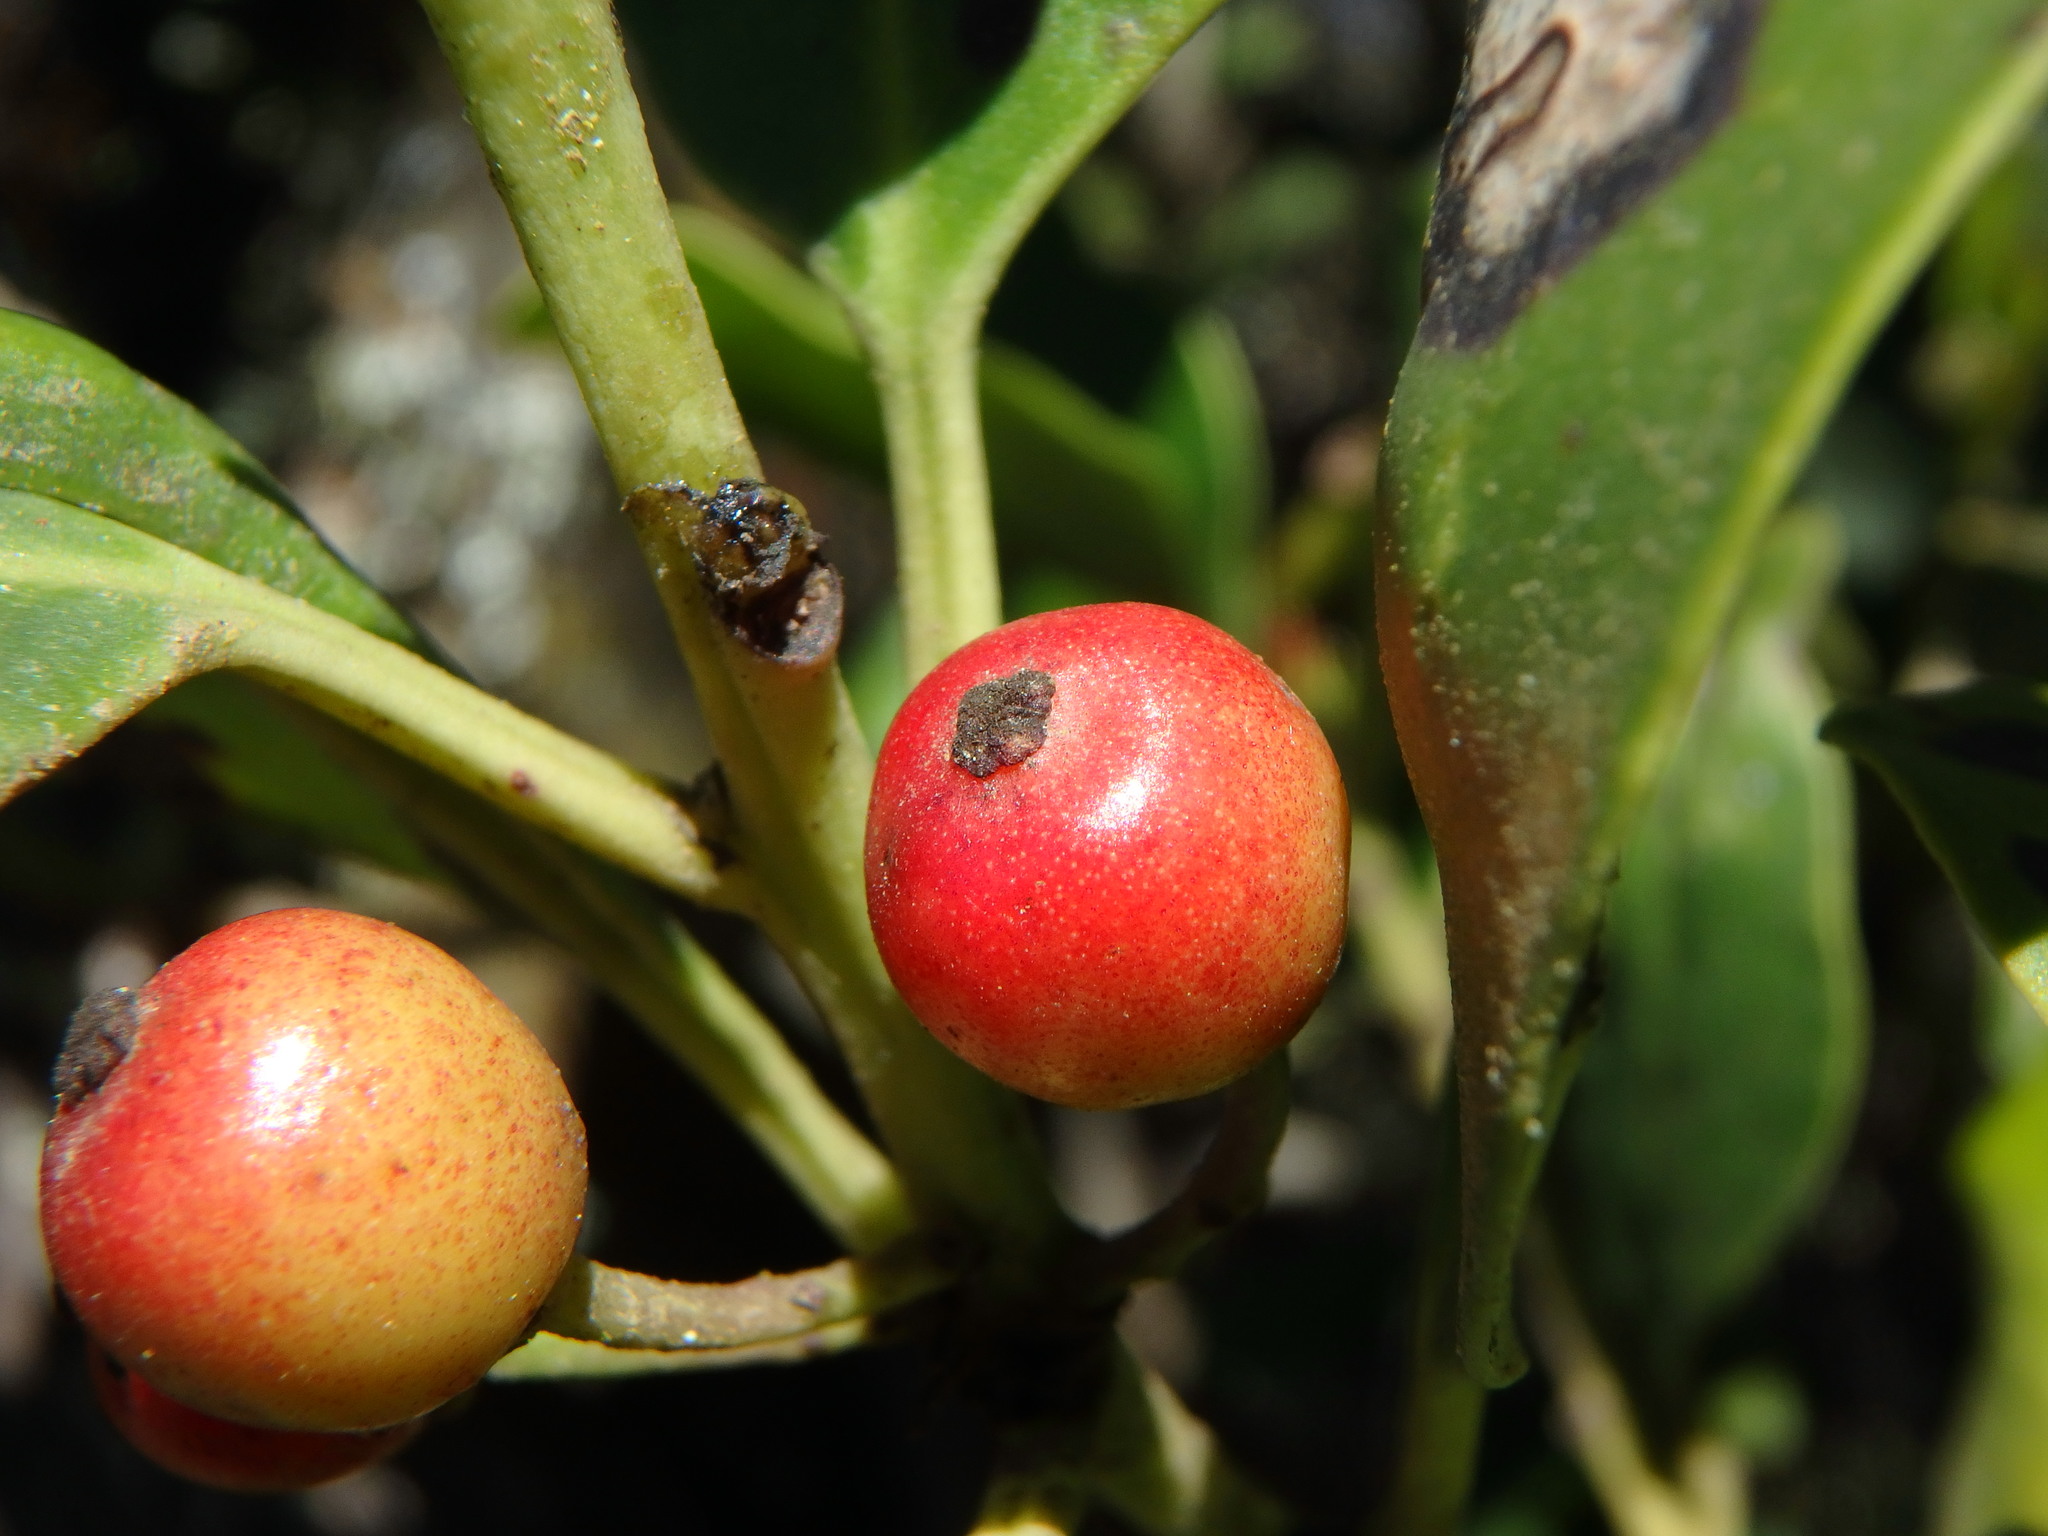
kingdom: Plantae
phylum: Tracheophyta
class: Magnoliopsida
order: Aquifoliales
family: Aquifoliaceae
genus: Ilex
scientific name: Ilex canariensis
